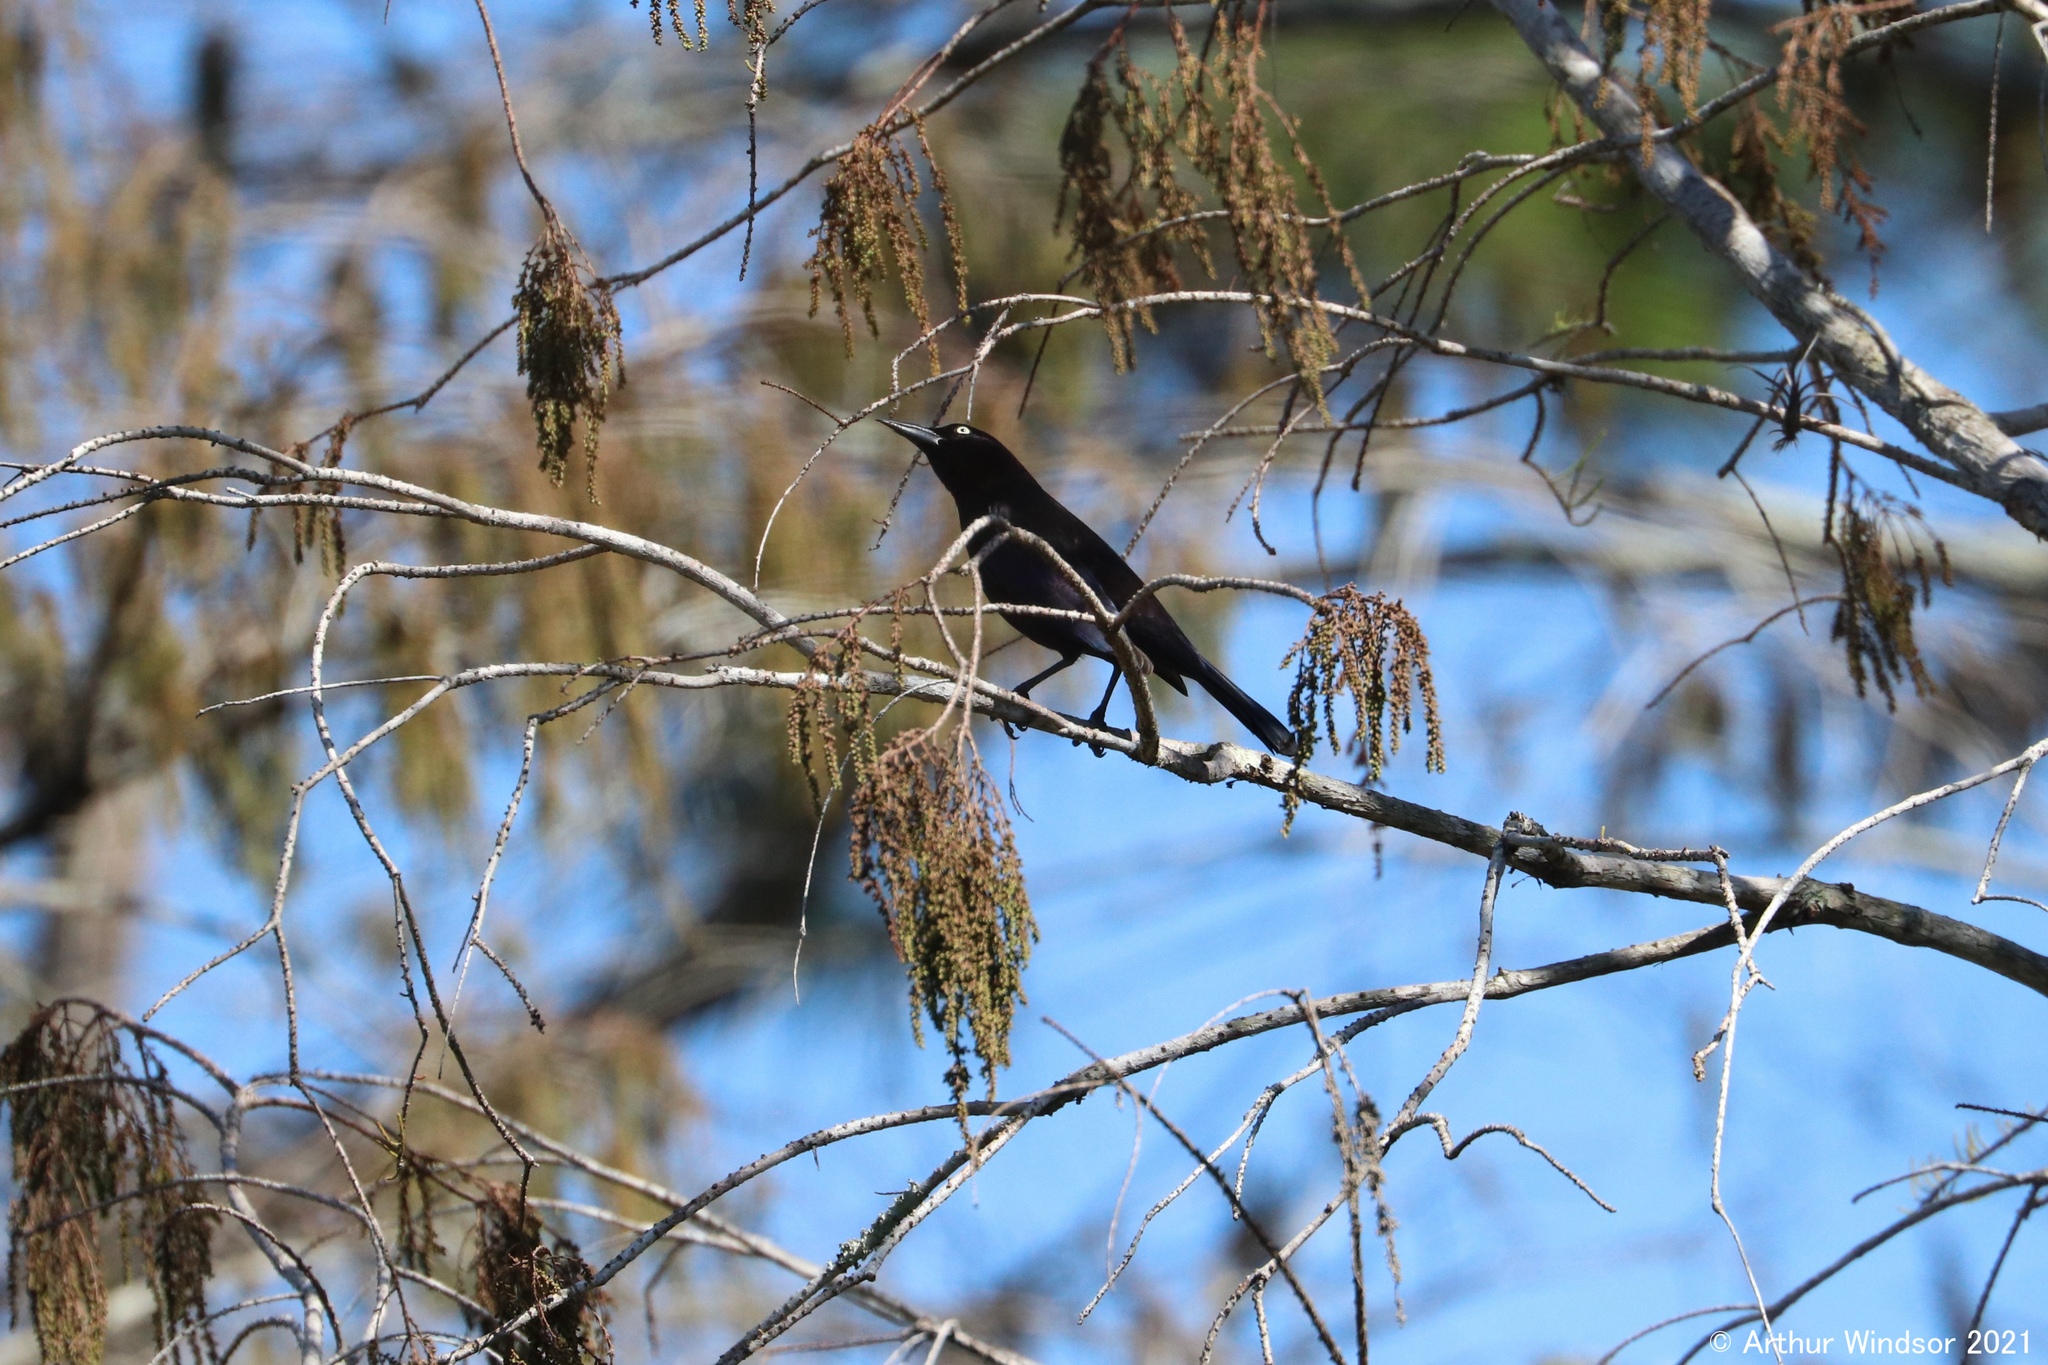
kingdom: Animalia
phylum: Chordata
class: Aves
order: Passeriformes
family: Icteridae
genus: Quiscalus
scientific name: Quiscalus quiscula
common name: Common grackle
